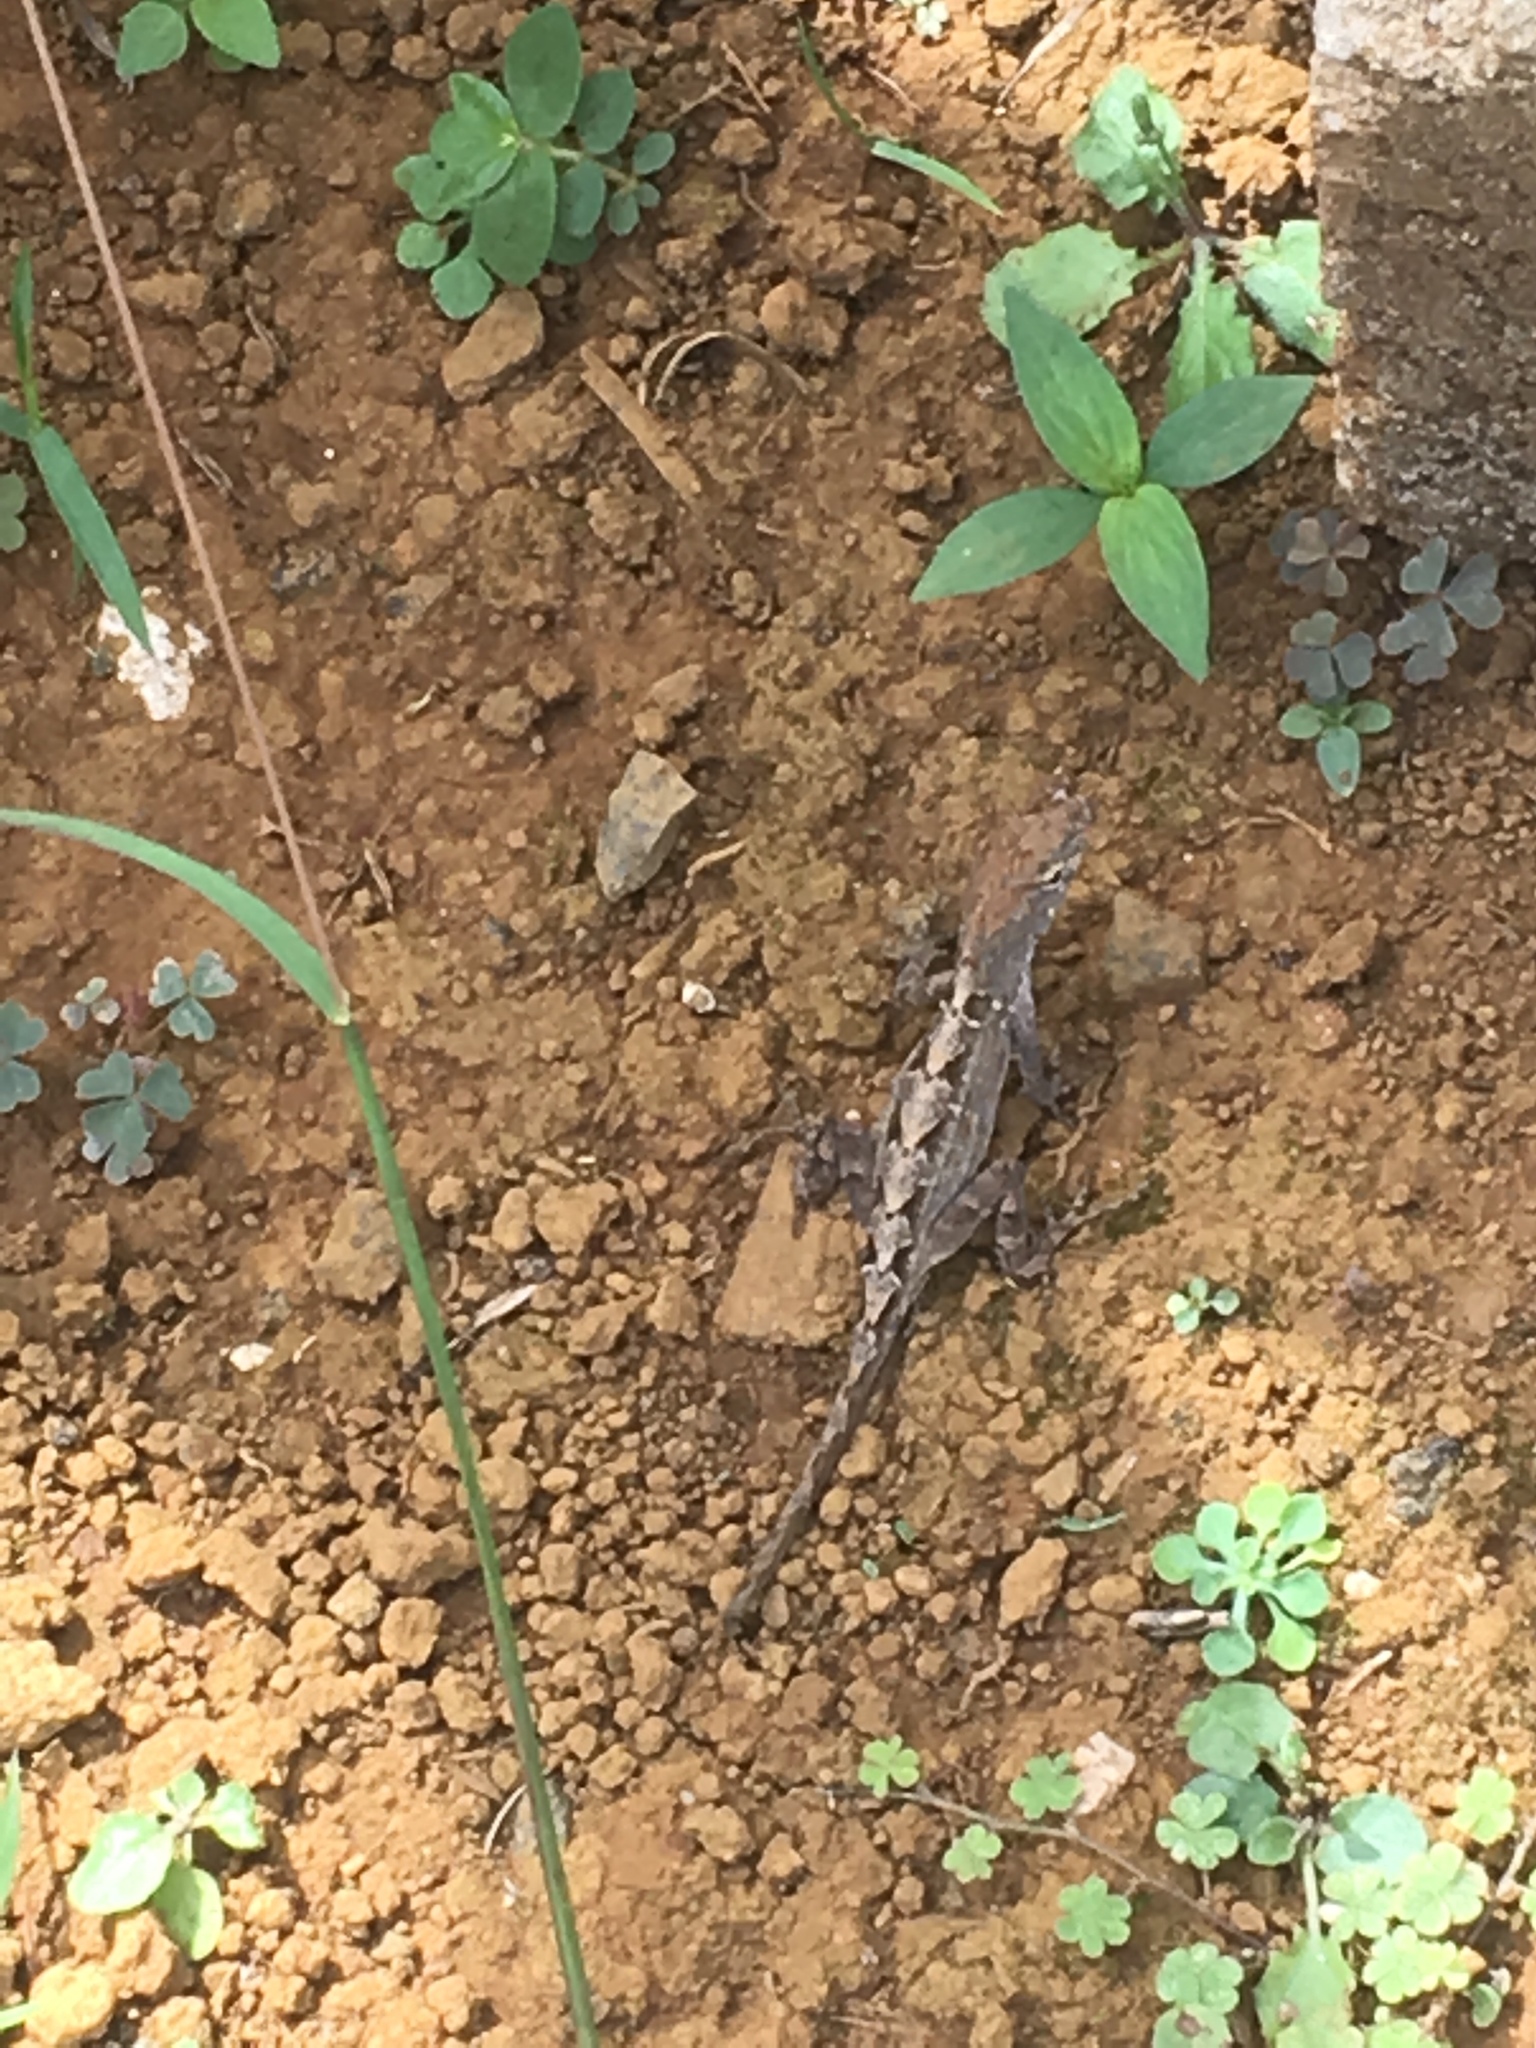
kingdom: Animalia
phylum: Chordata
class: Squamata
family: Dactyloidae
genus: Anolis
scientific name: Anolis sagrei
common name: Brown anole
